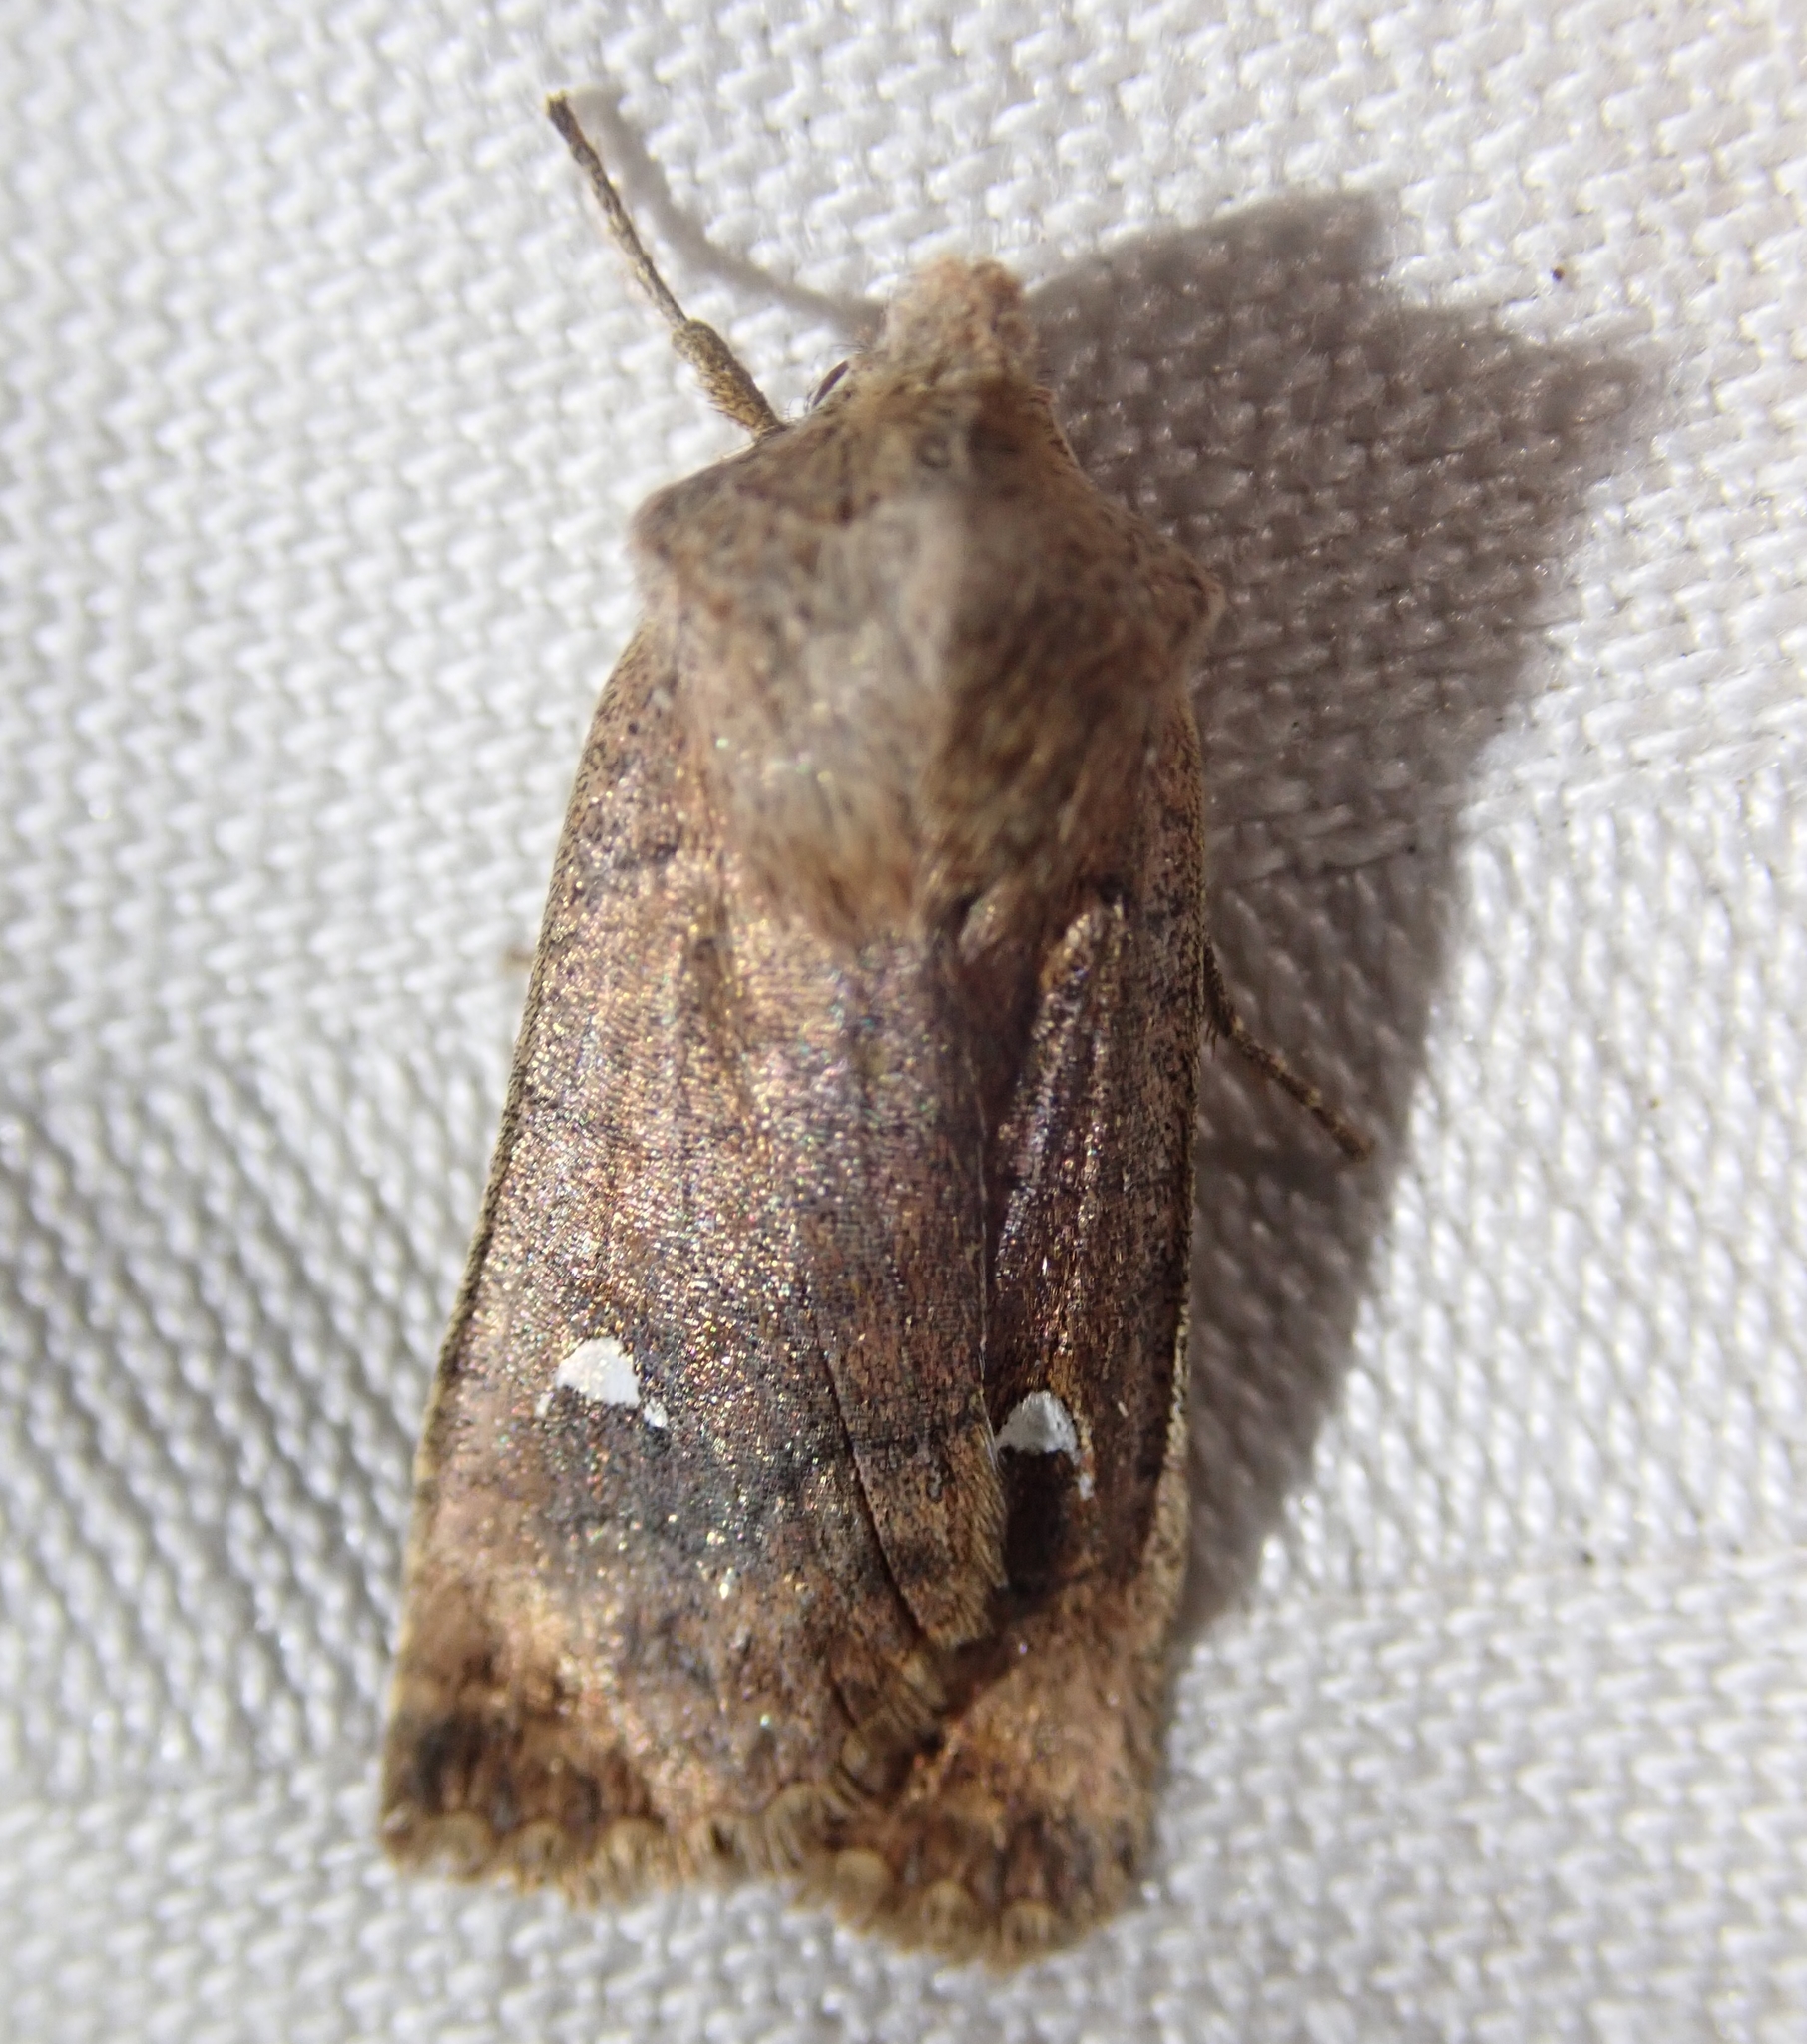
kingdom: Animalia
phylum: Arthropoda
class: Insecta
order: Lepidoptera
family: Noctuidae
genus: Eupsilia
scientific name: Eupsilia transversa
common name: Satellite
